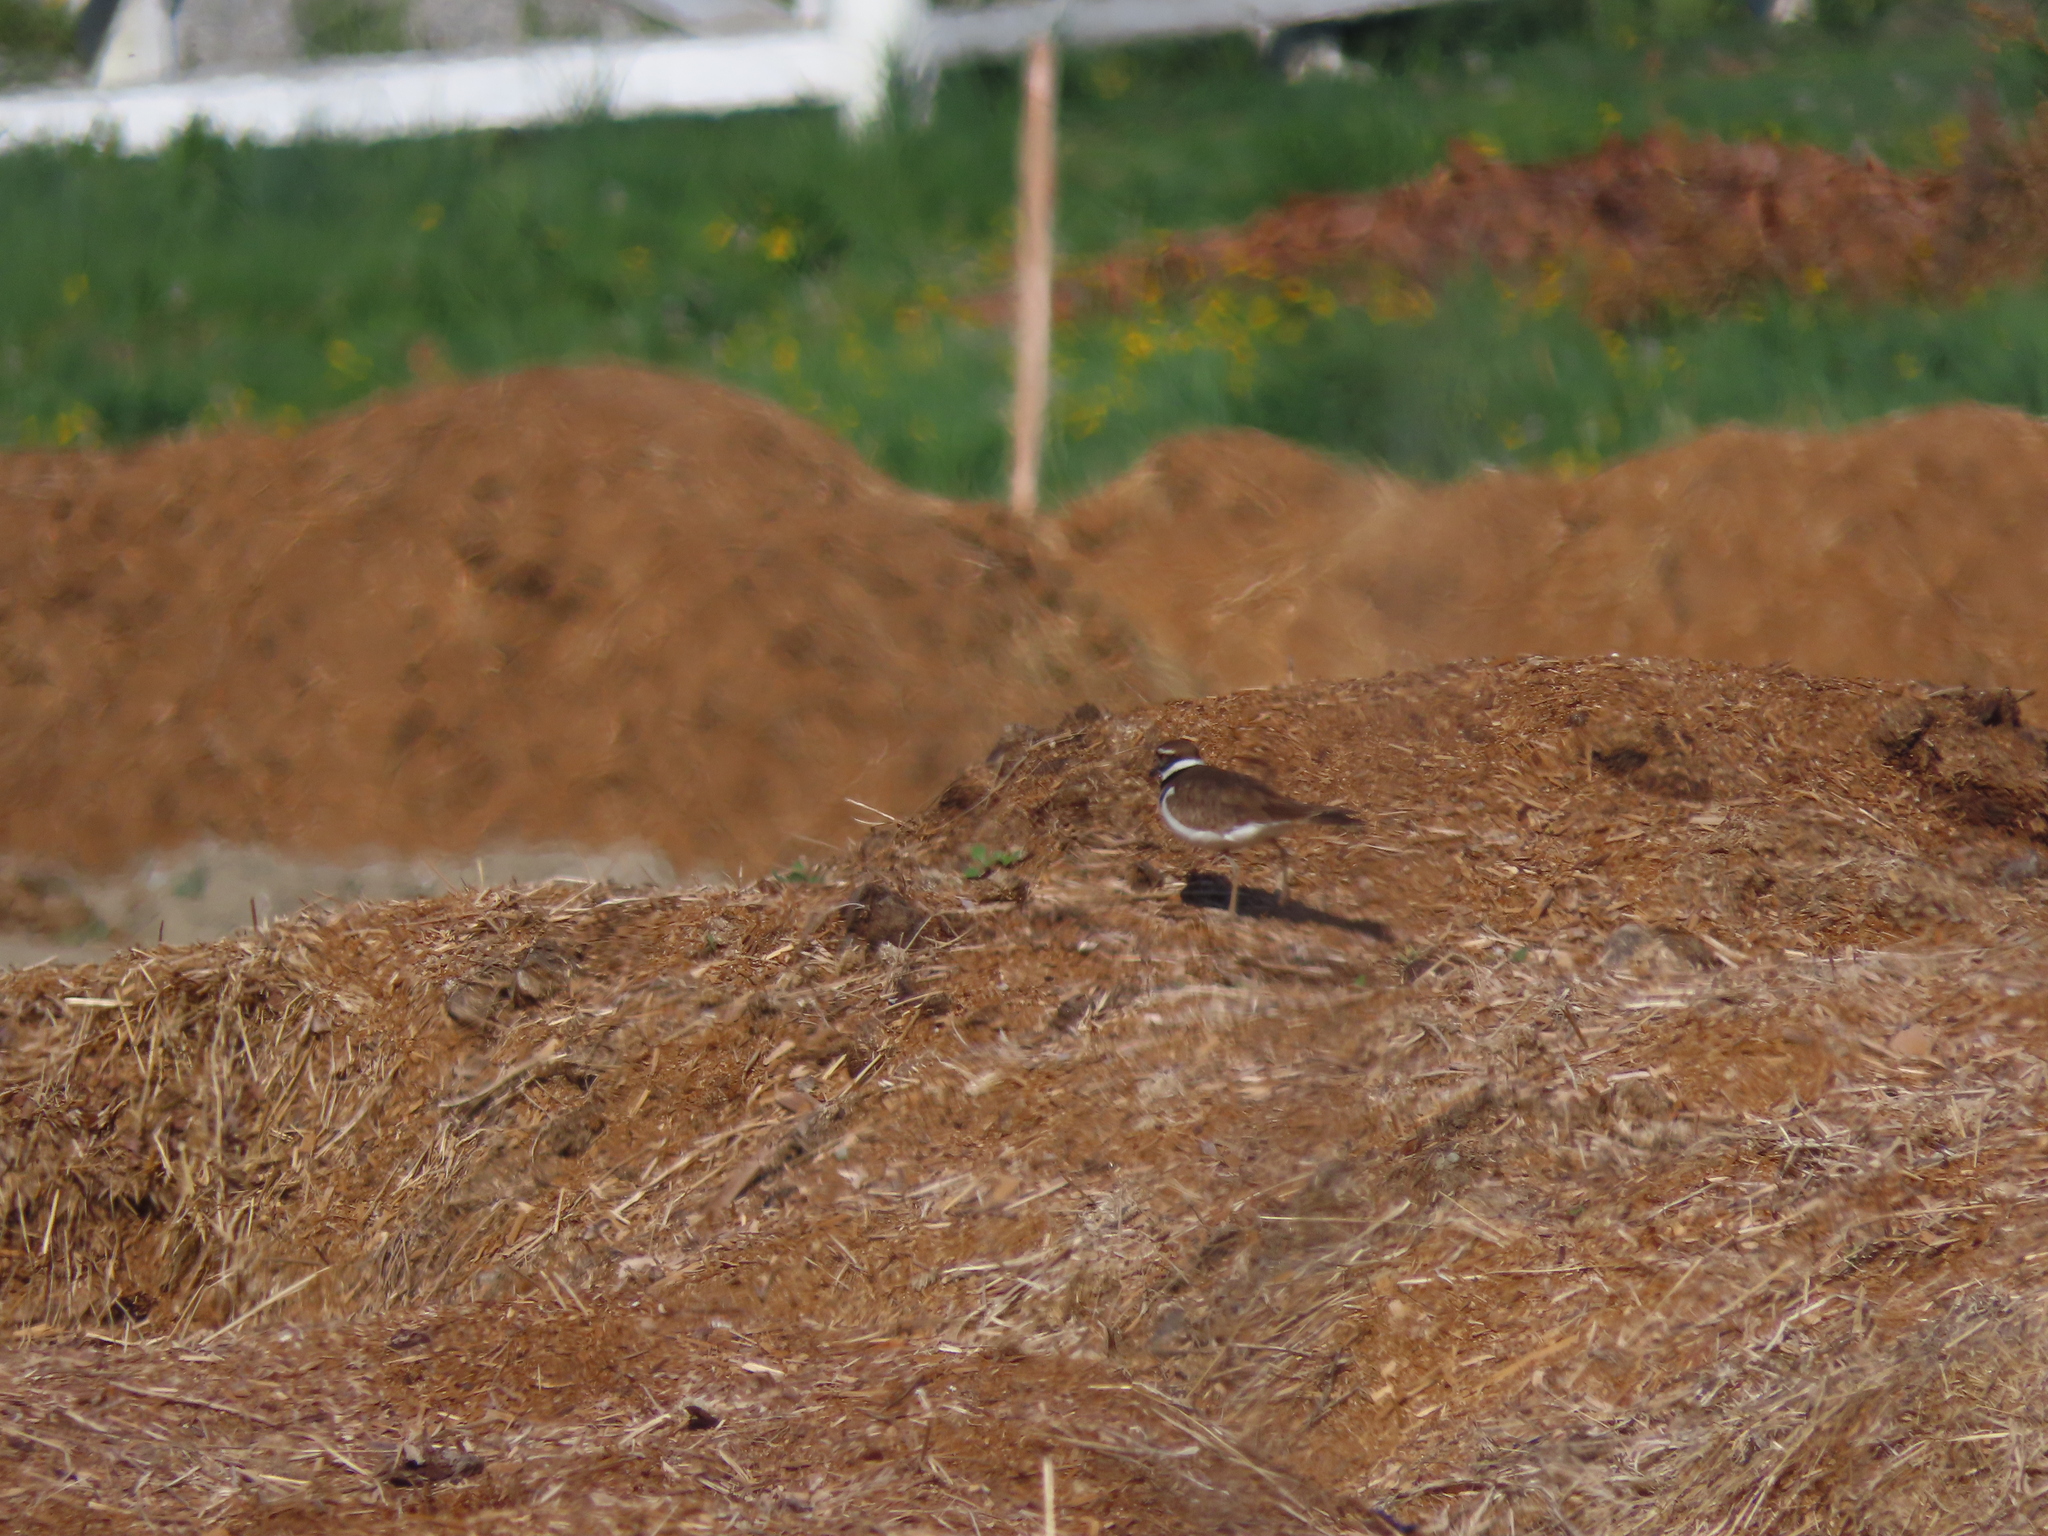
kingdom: Animalia
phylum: Chordata
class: Aves
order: Charadriiformes
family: Charadriidae
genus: Charadrius
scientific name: Charadrius vociferus
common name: Killdeer
